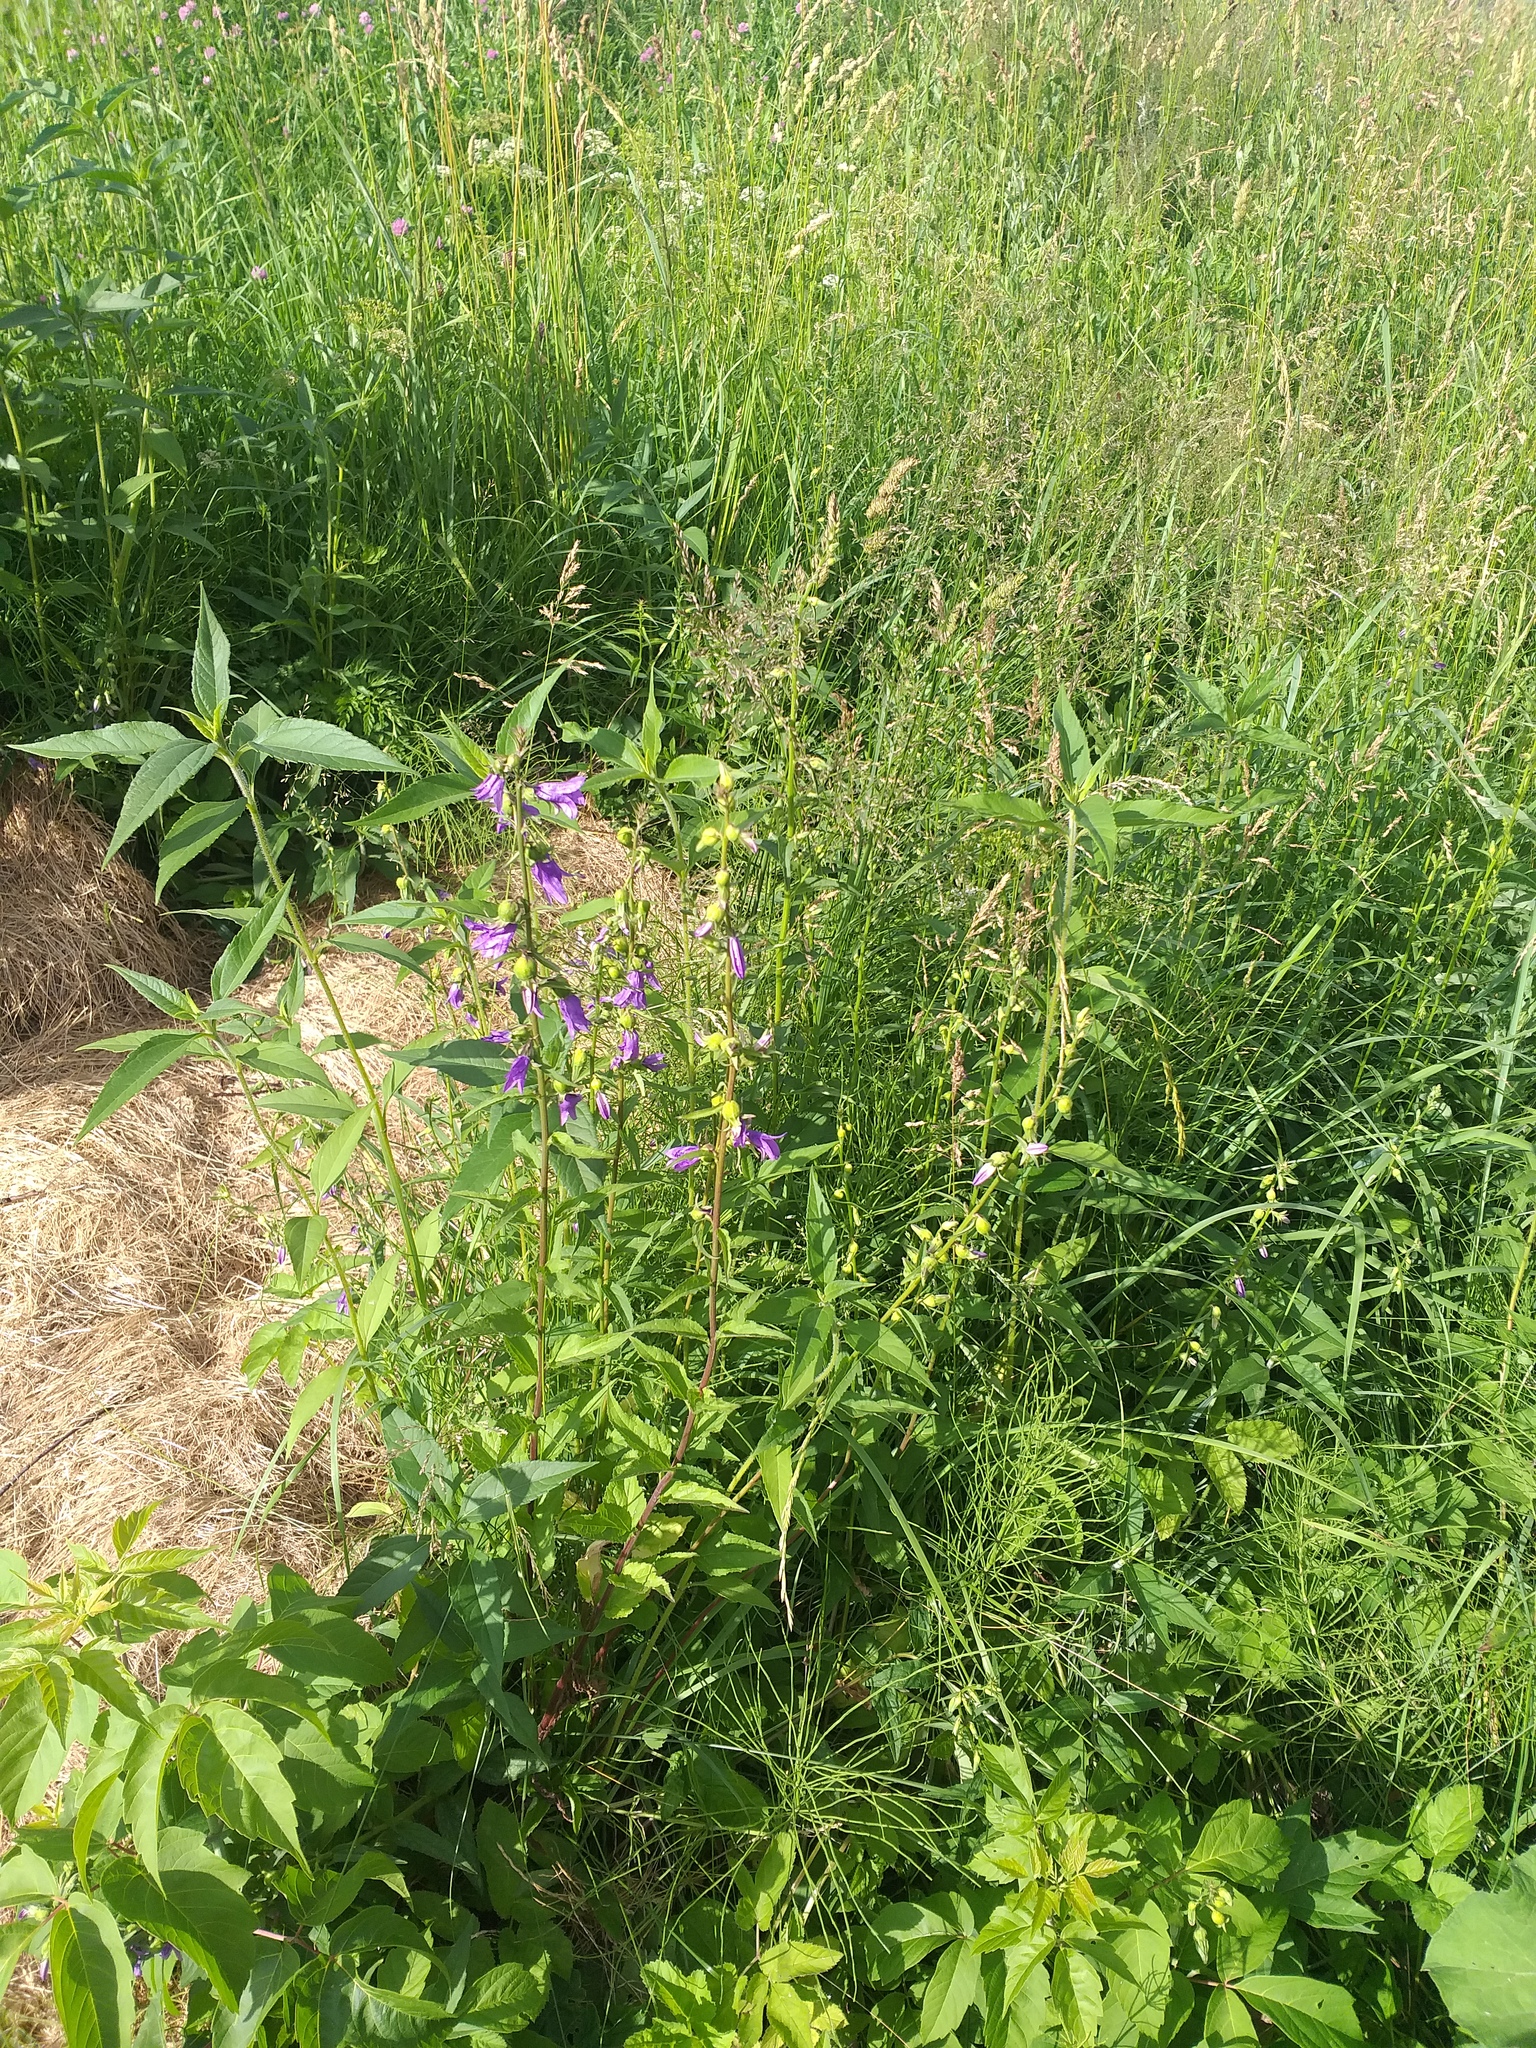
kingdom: Plantae
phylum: Tracheophyta
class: Magnoliopsida
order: Asterales
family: Campanulaceae
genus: Campanula
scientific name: Campanula rapunculoides
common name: Creeping bellflower
